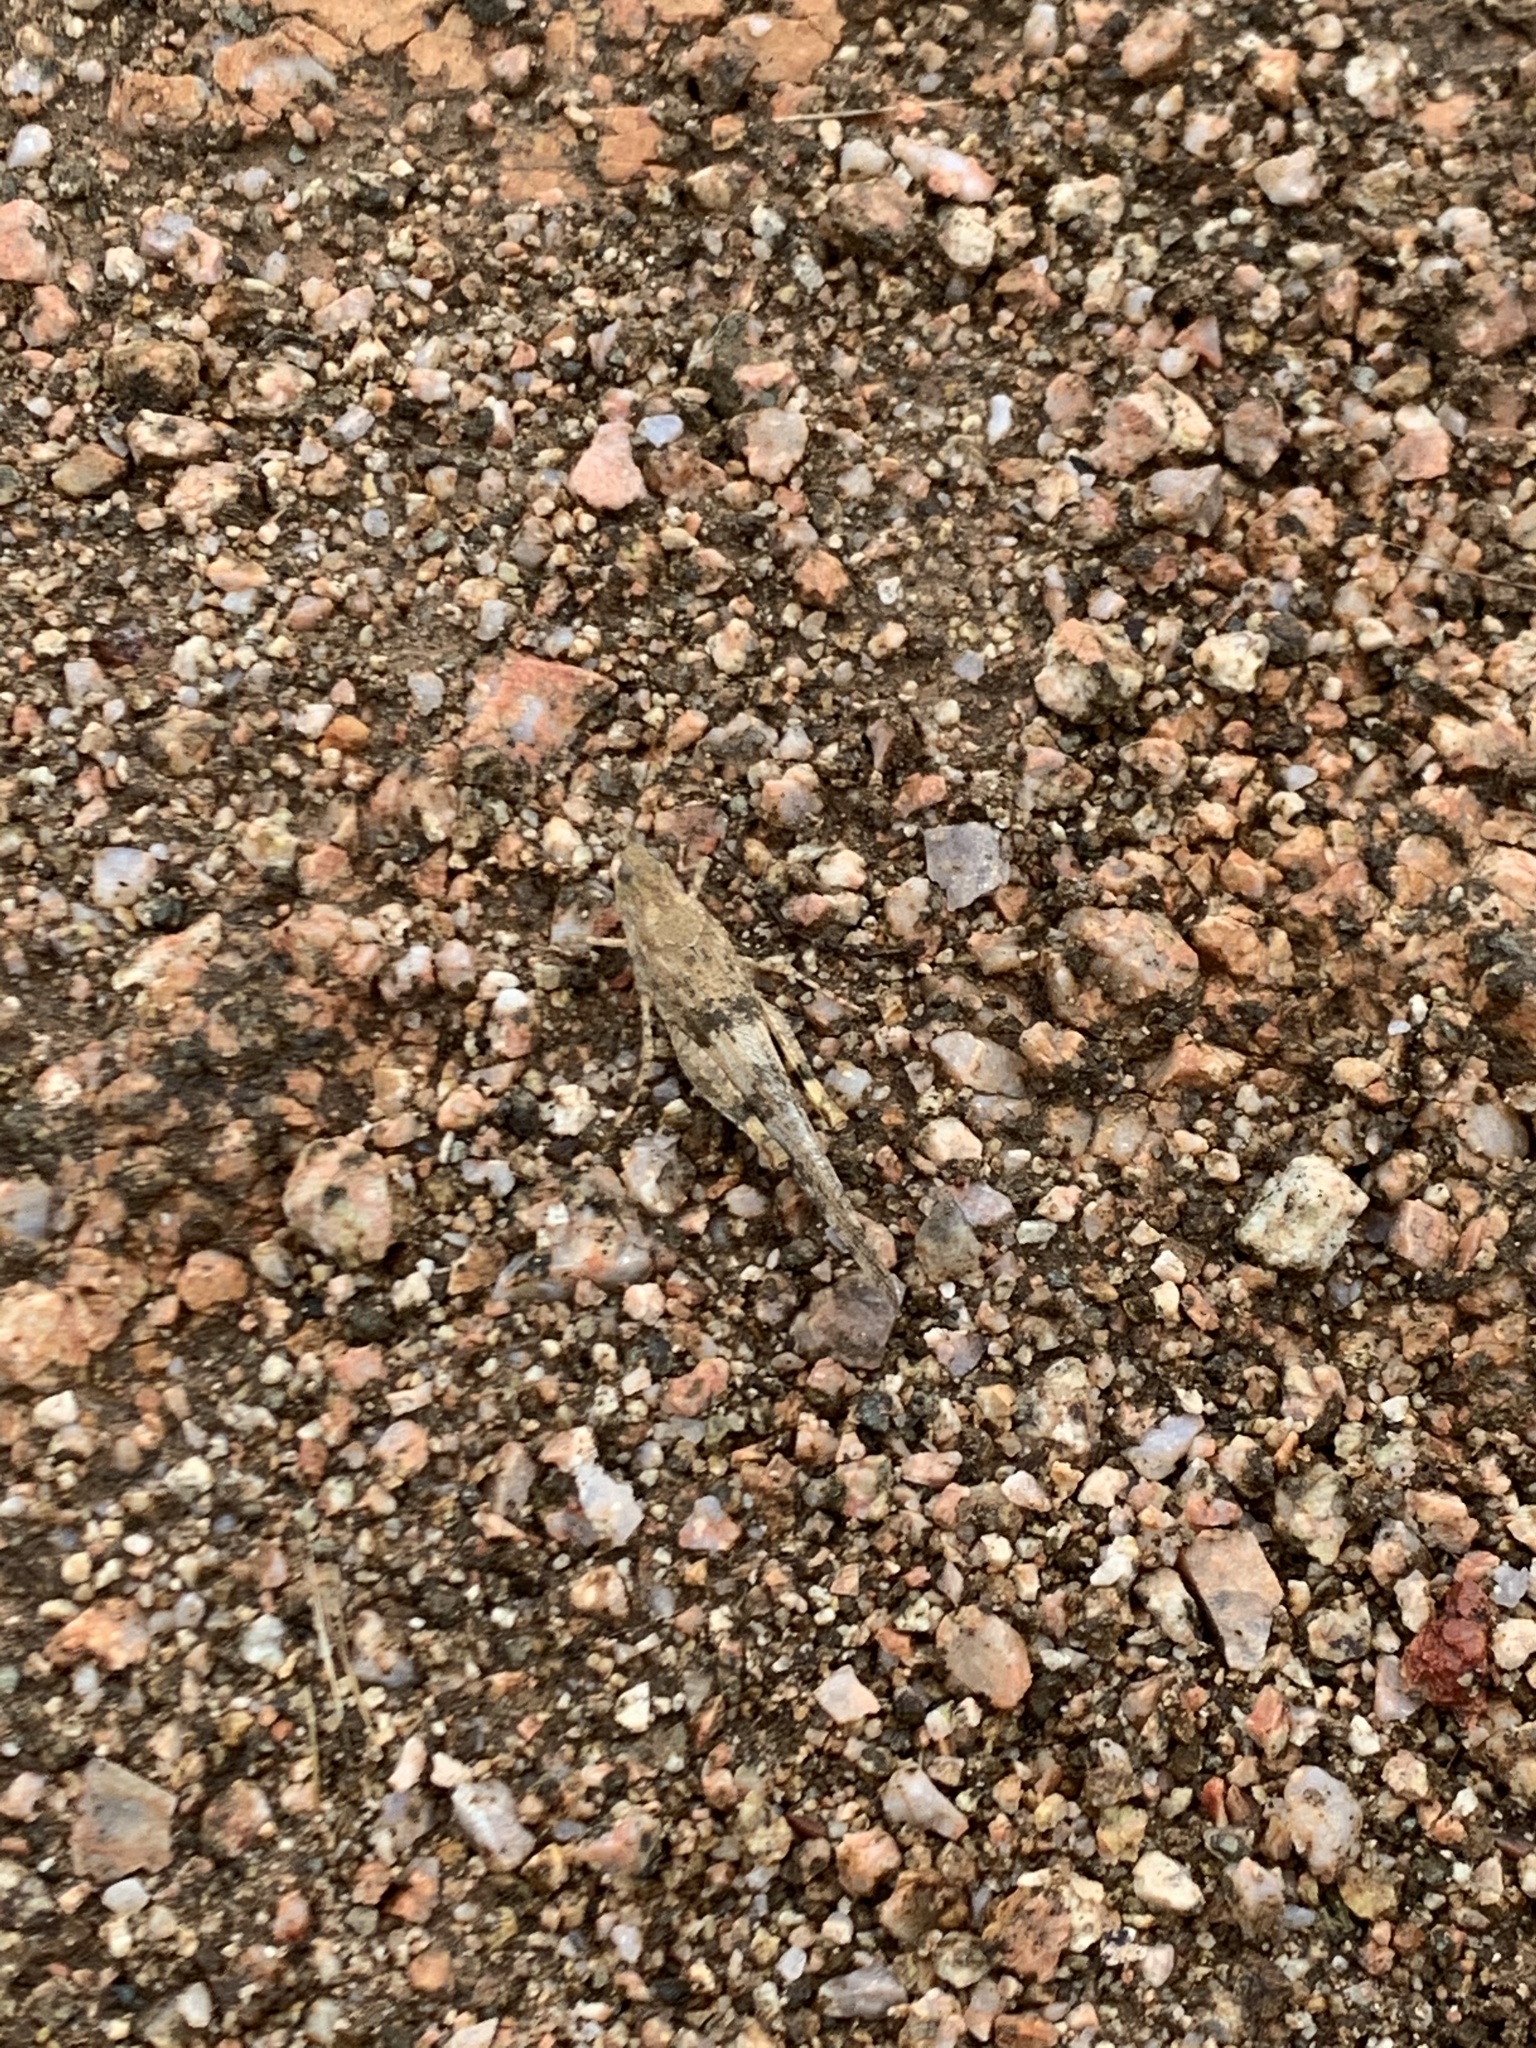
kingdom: Animalia
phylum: Arthropoda
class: Insecta
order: Orthoptera
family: Acrididae
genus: Trimerotropis
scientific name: Trimerotropis pallidipennis
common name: Pallid-winged grasshopper
